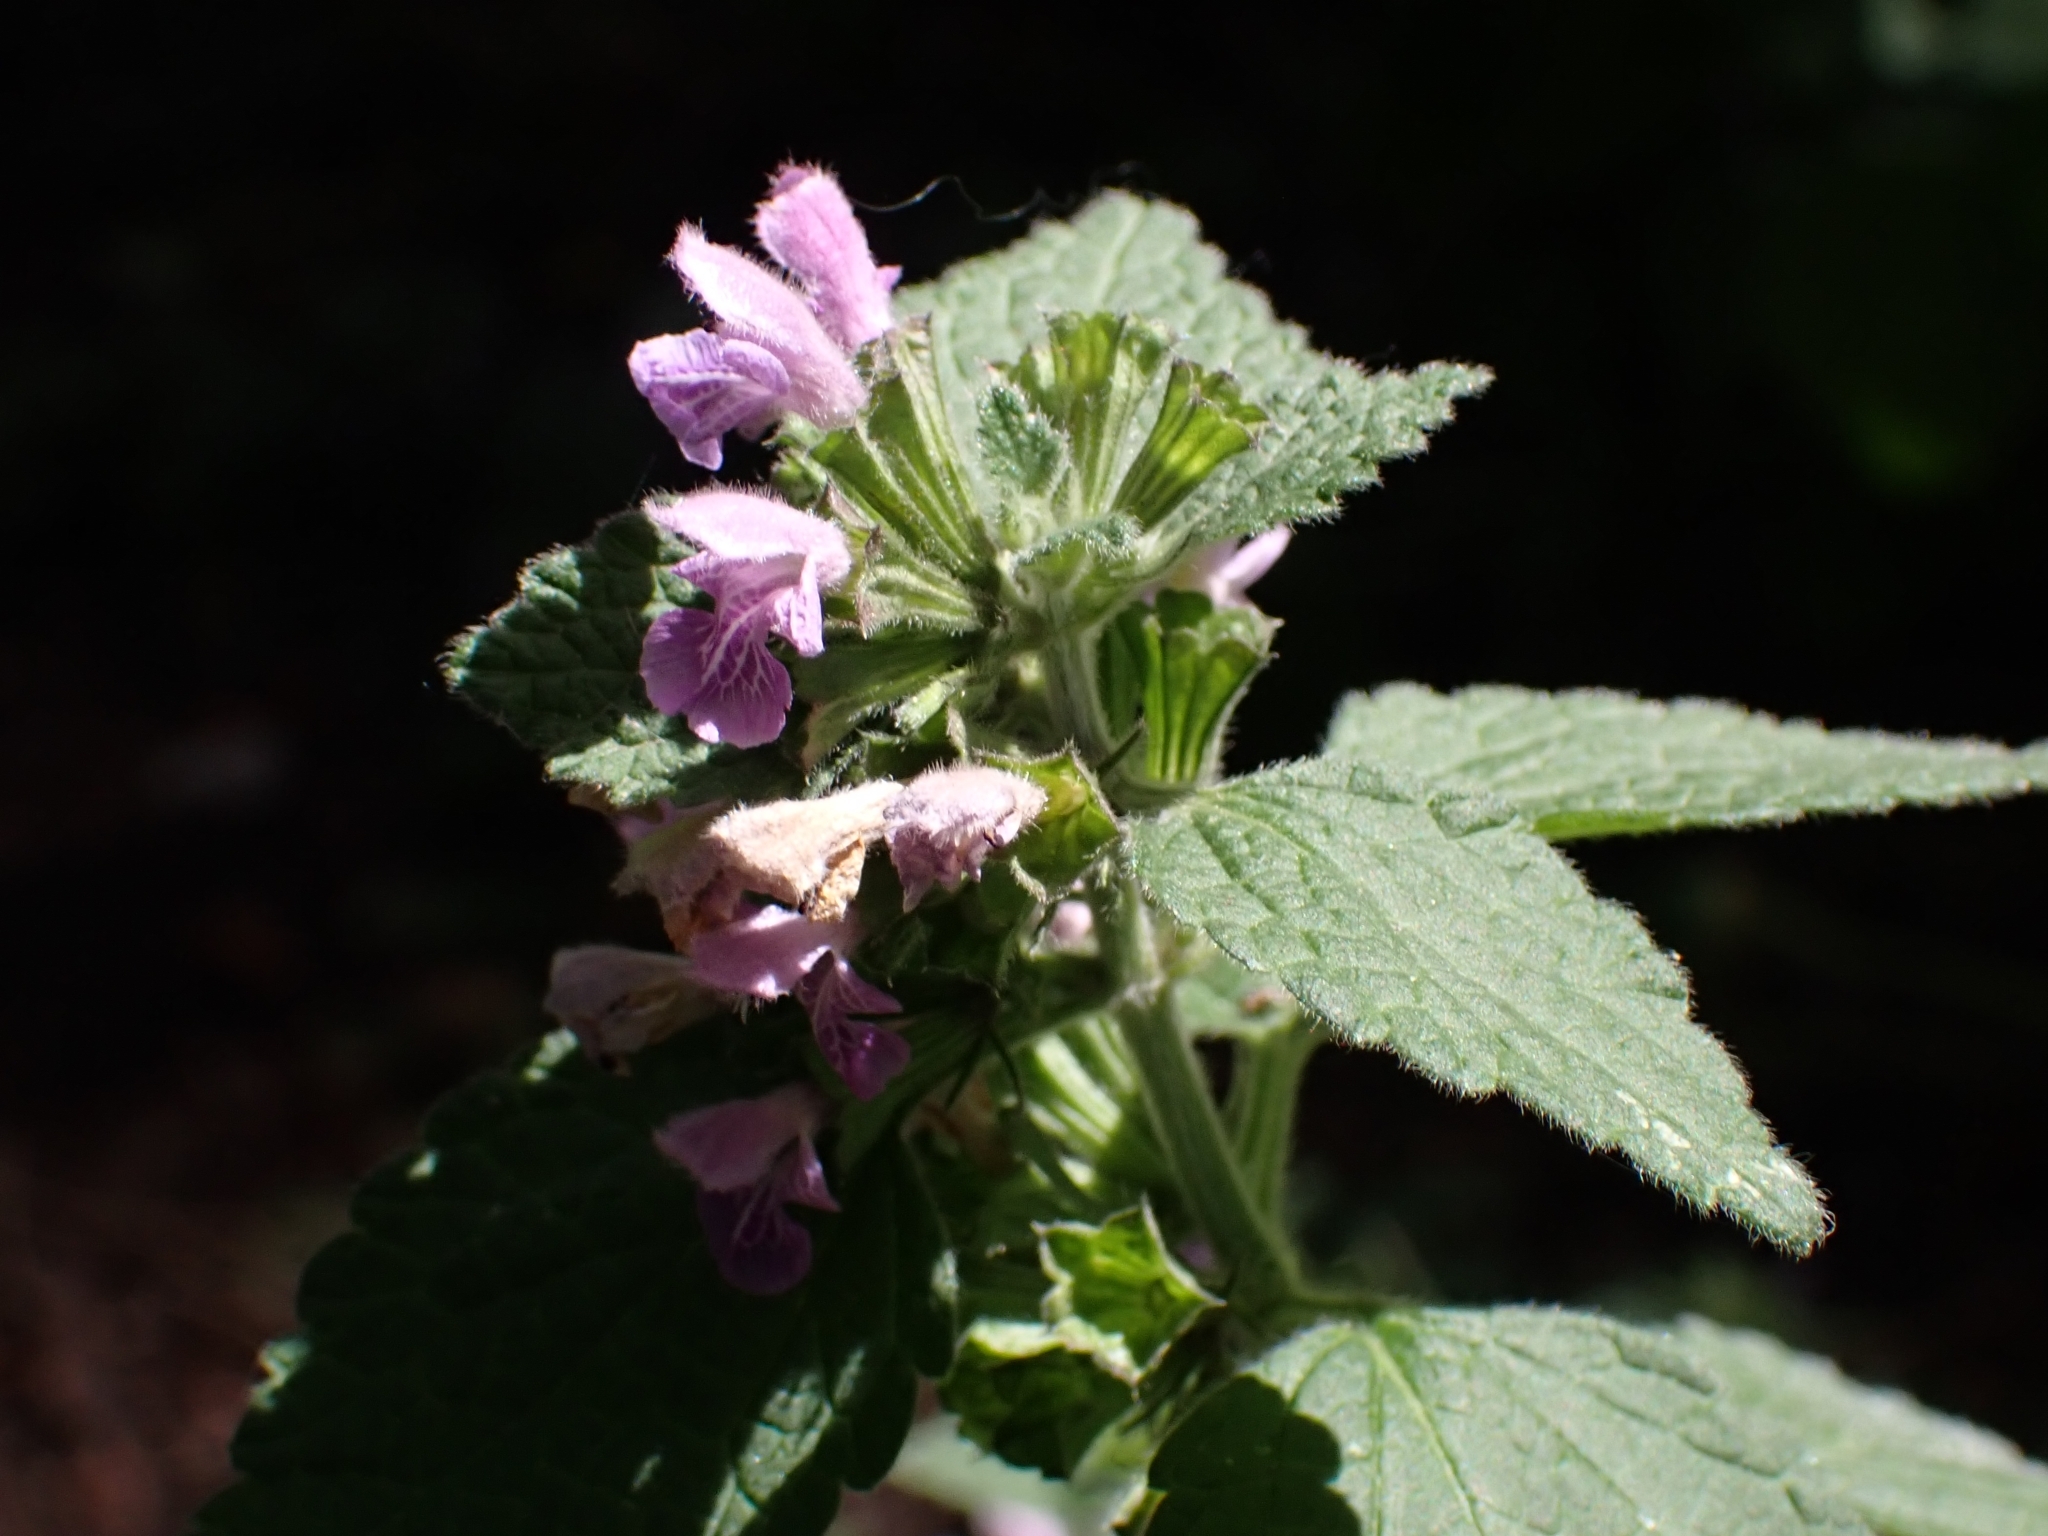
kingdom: Plantae
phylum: Tracheophyta
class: Magnoliopsida
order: Lamiales
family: Lamiaceae
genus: Ballota
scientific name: Ballota nigra
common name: Black horehound
